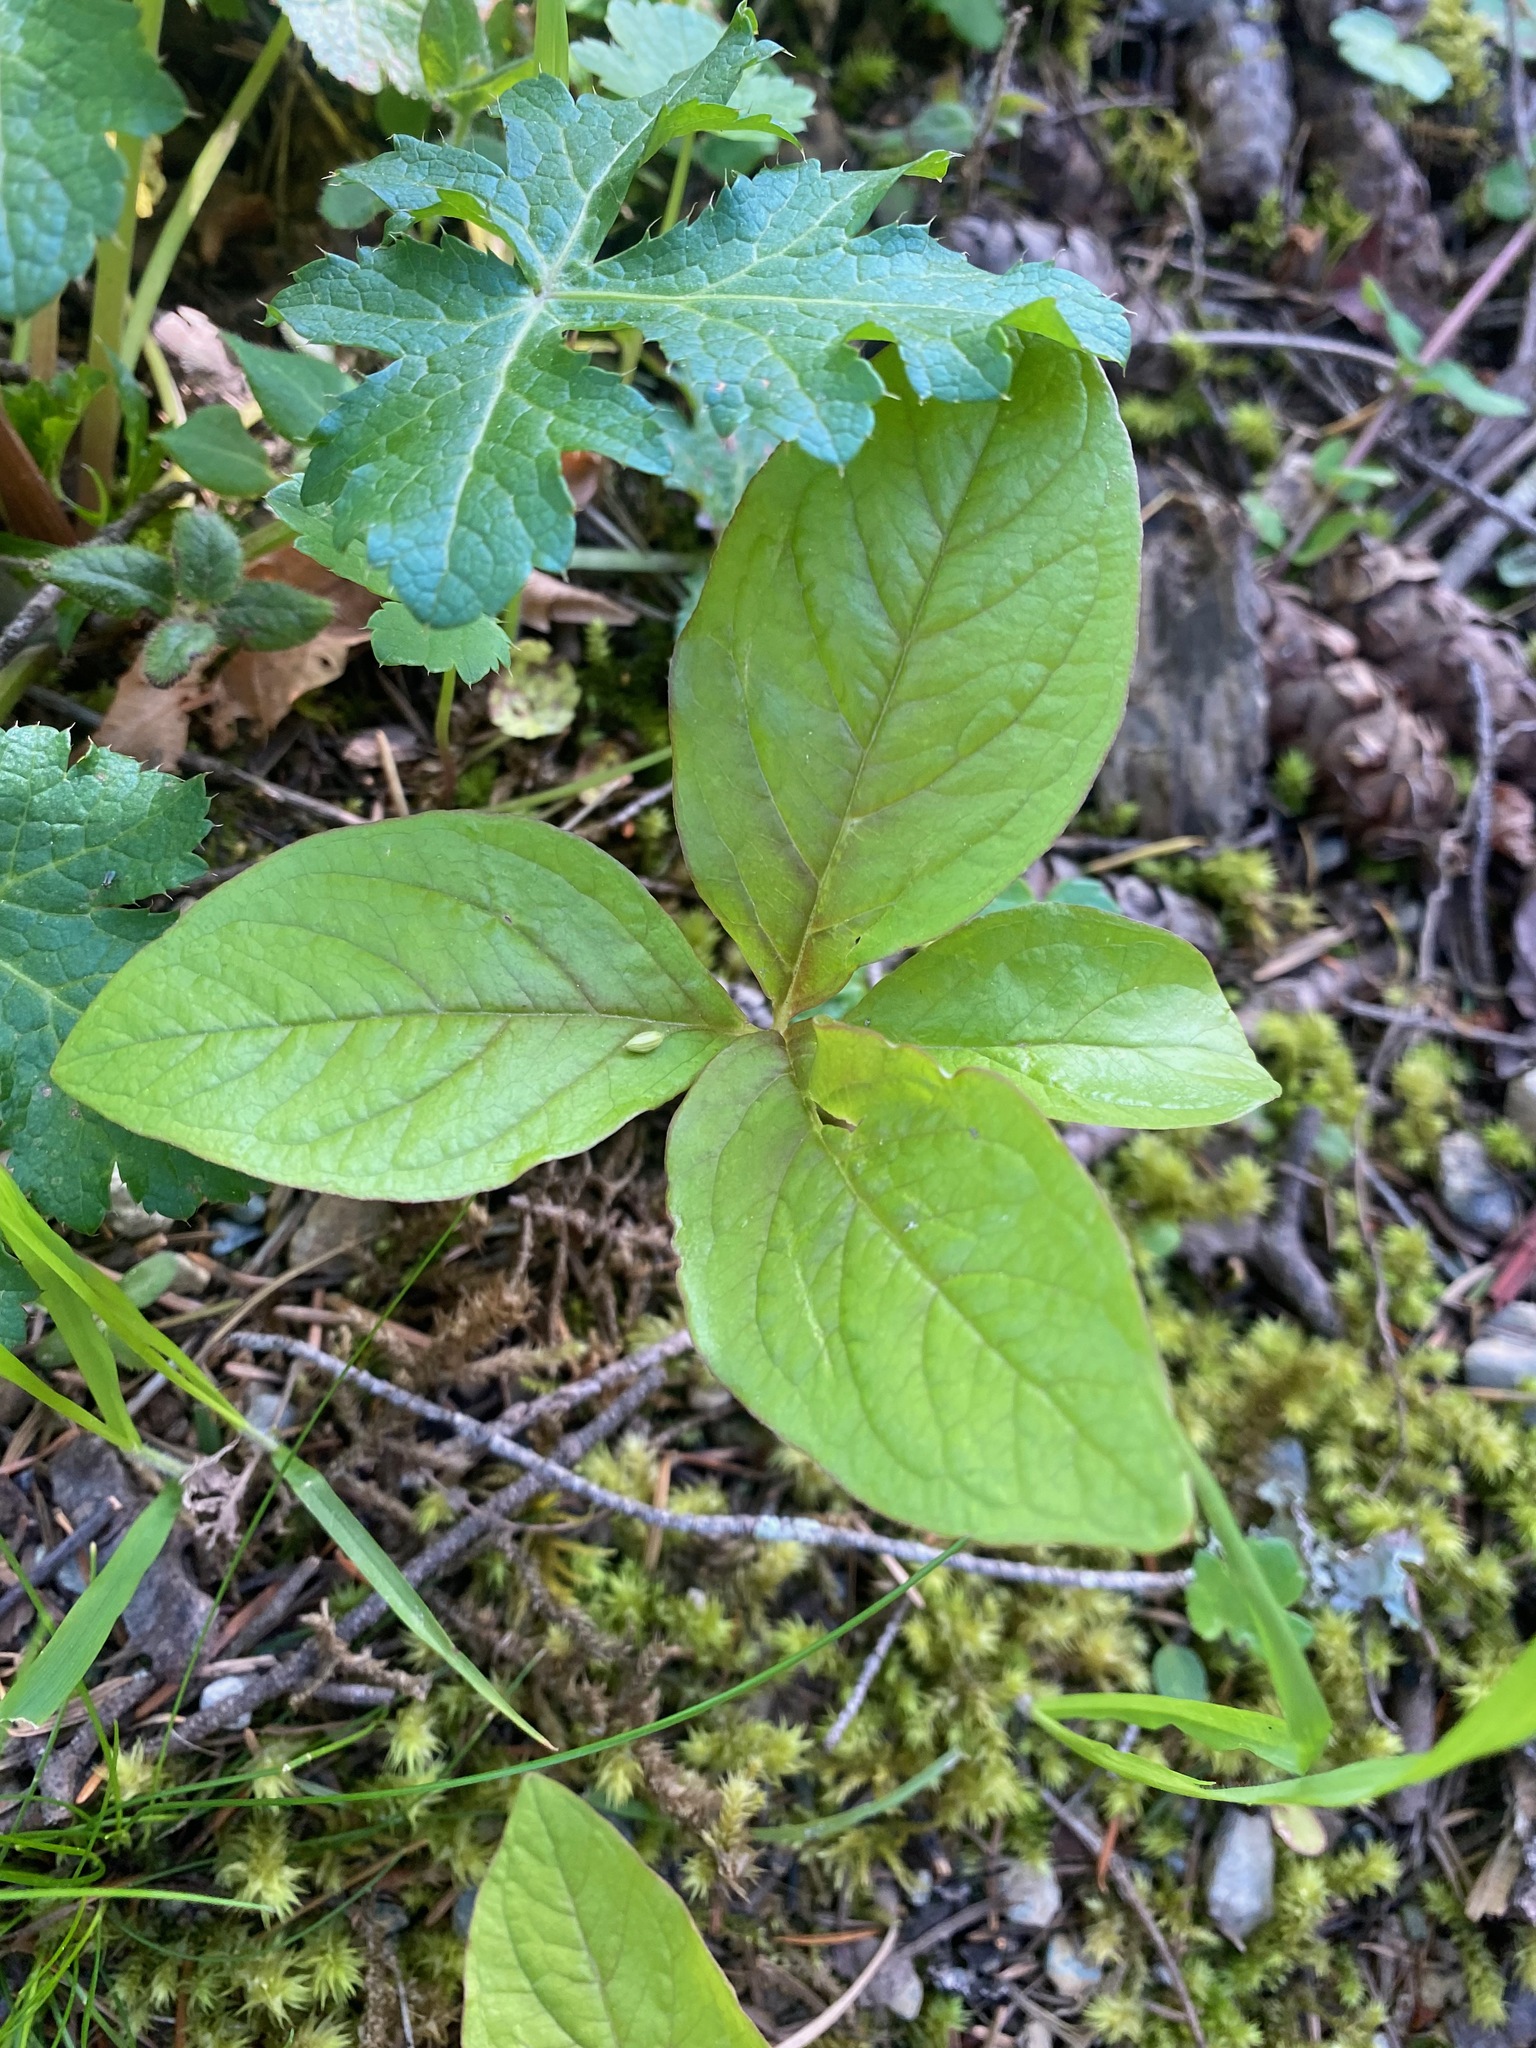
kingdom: Plantae
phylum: Tracheophyta
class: Magnoliopsida
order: Ericales
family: Primulaceae
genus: Lysimachia
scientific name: Lysimachia latifolia
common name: Pacific starflower
